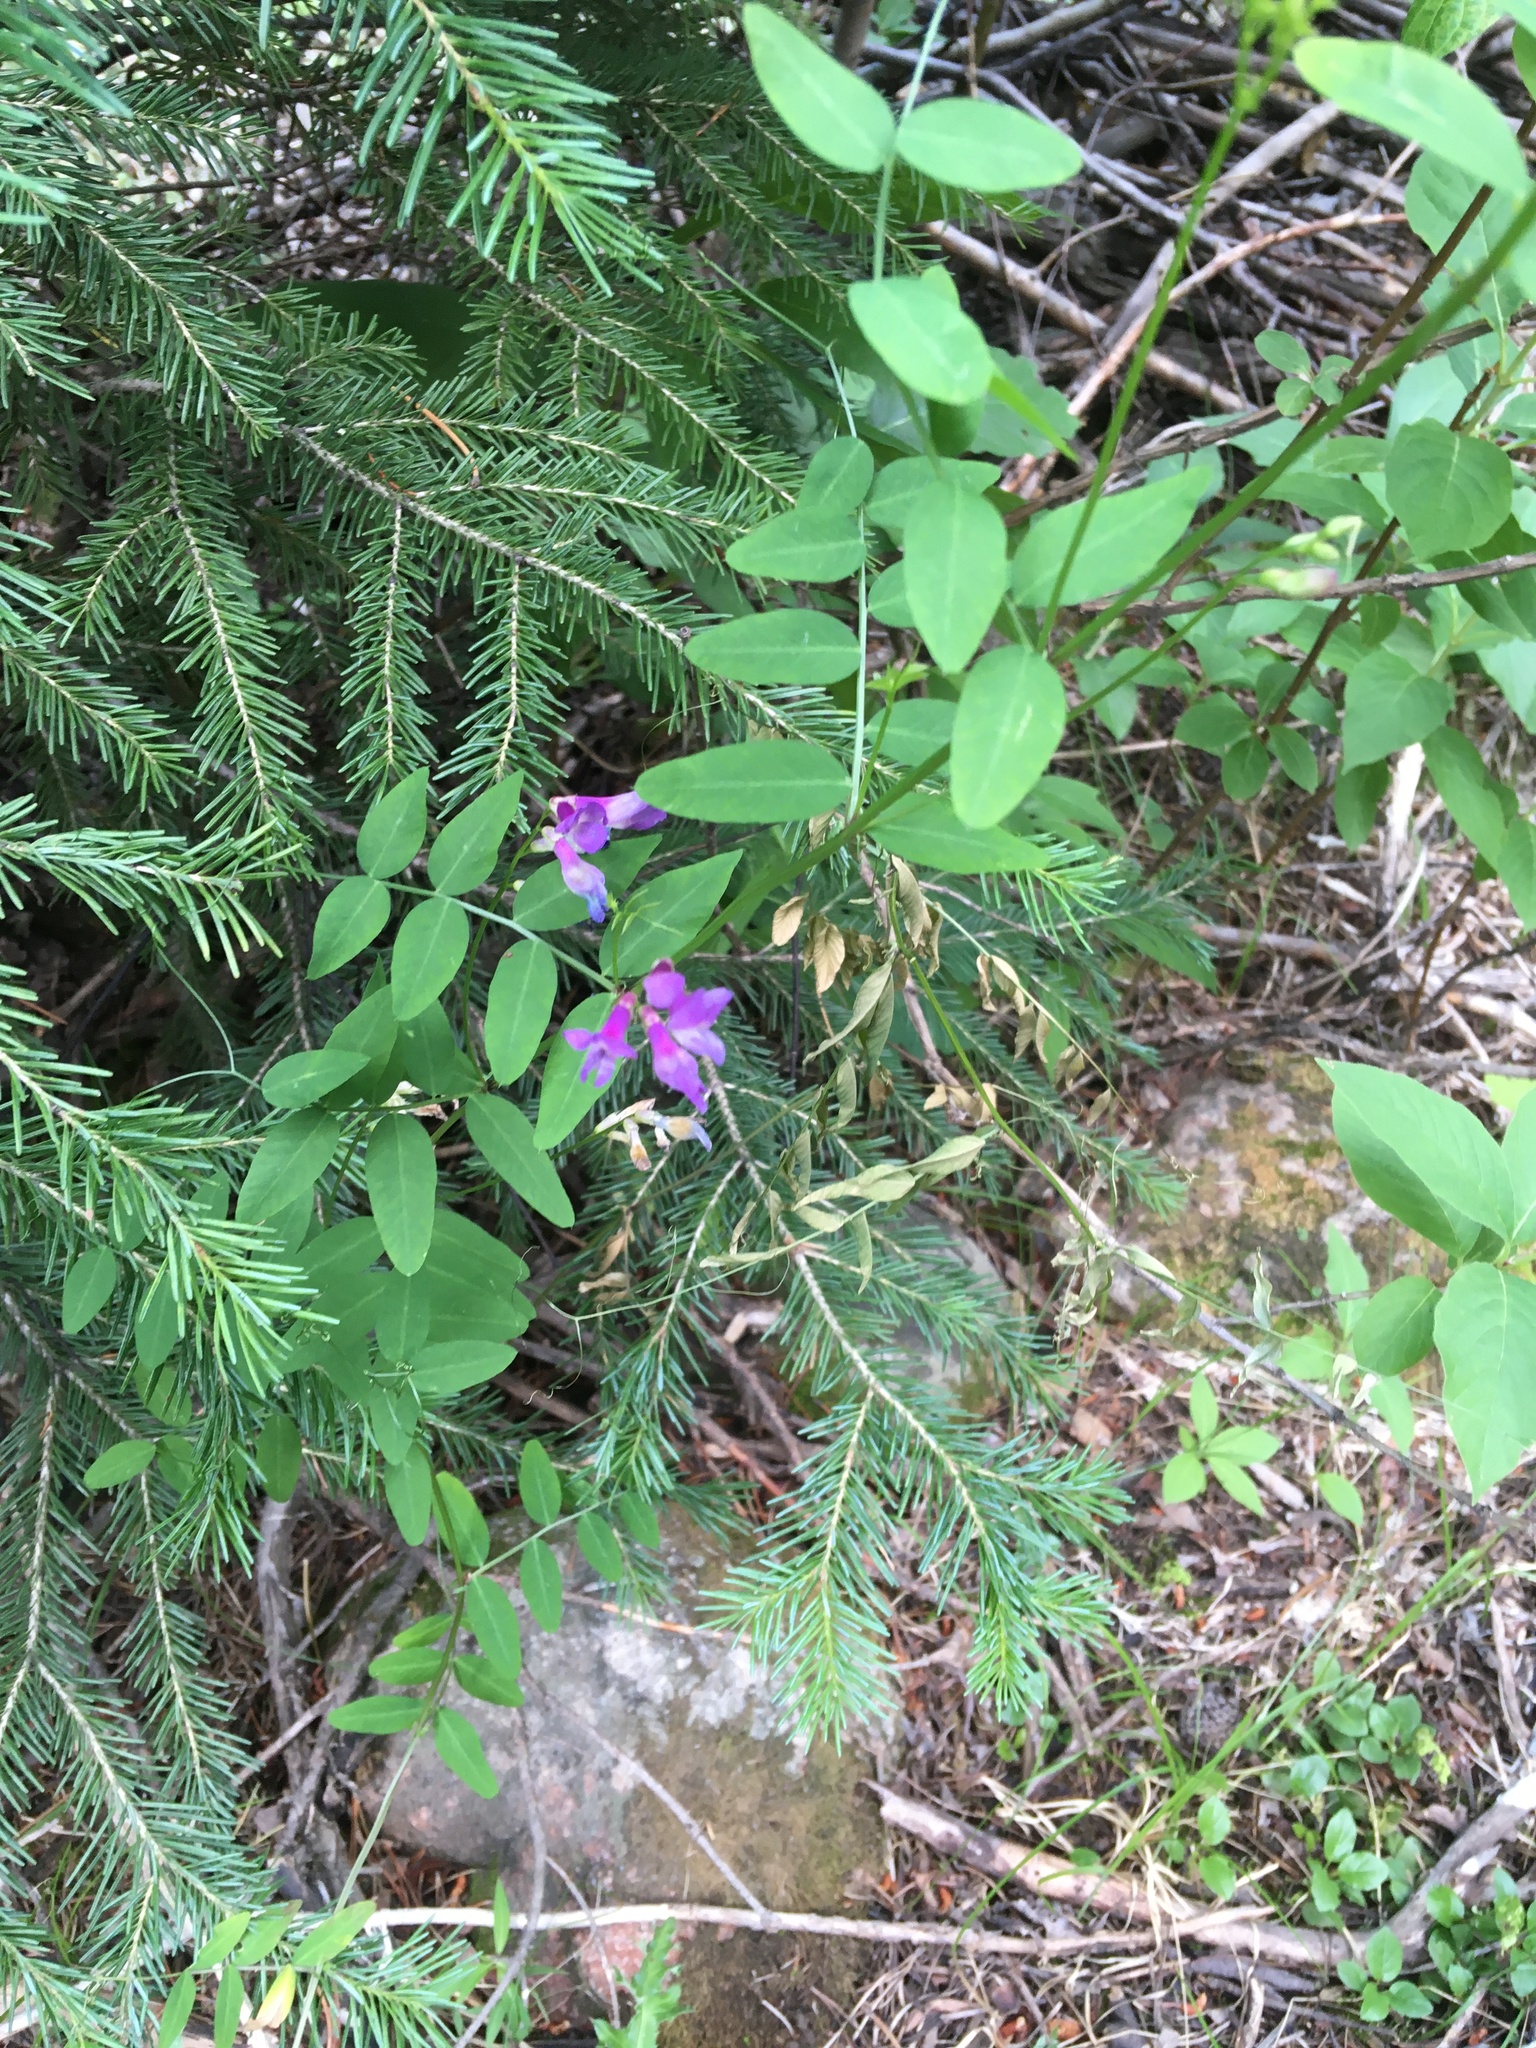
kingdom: Plantae
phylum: Tracheophyta
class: Magnoliopsida
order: Fabales
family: Fabaceae
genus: Vicia
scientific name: Vicia americana
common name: American vetch
